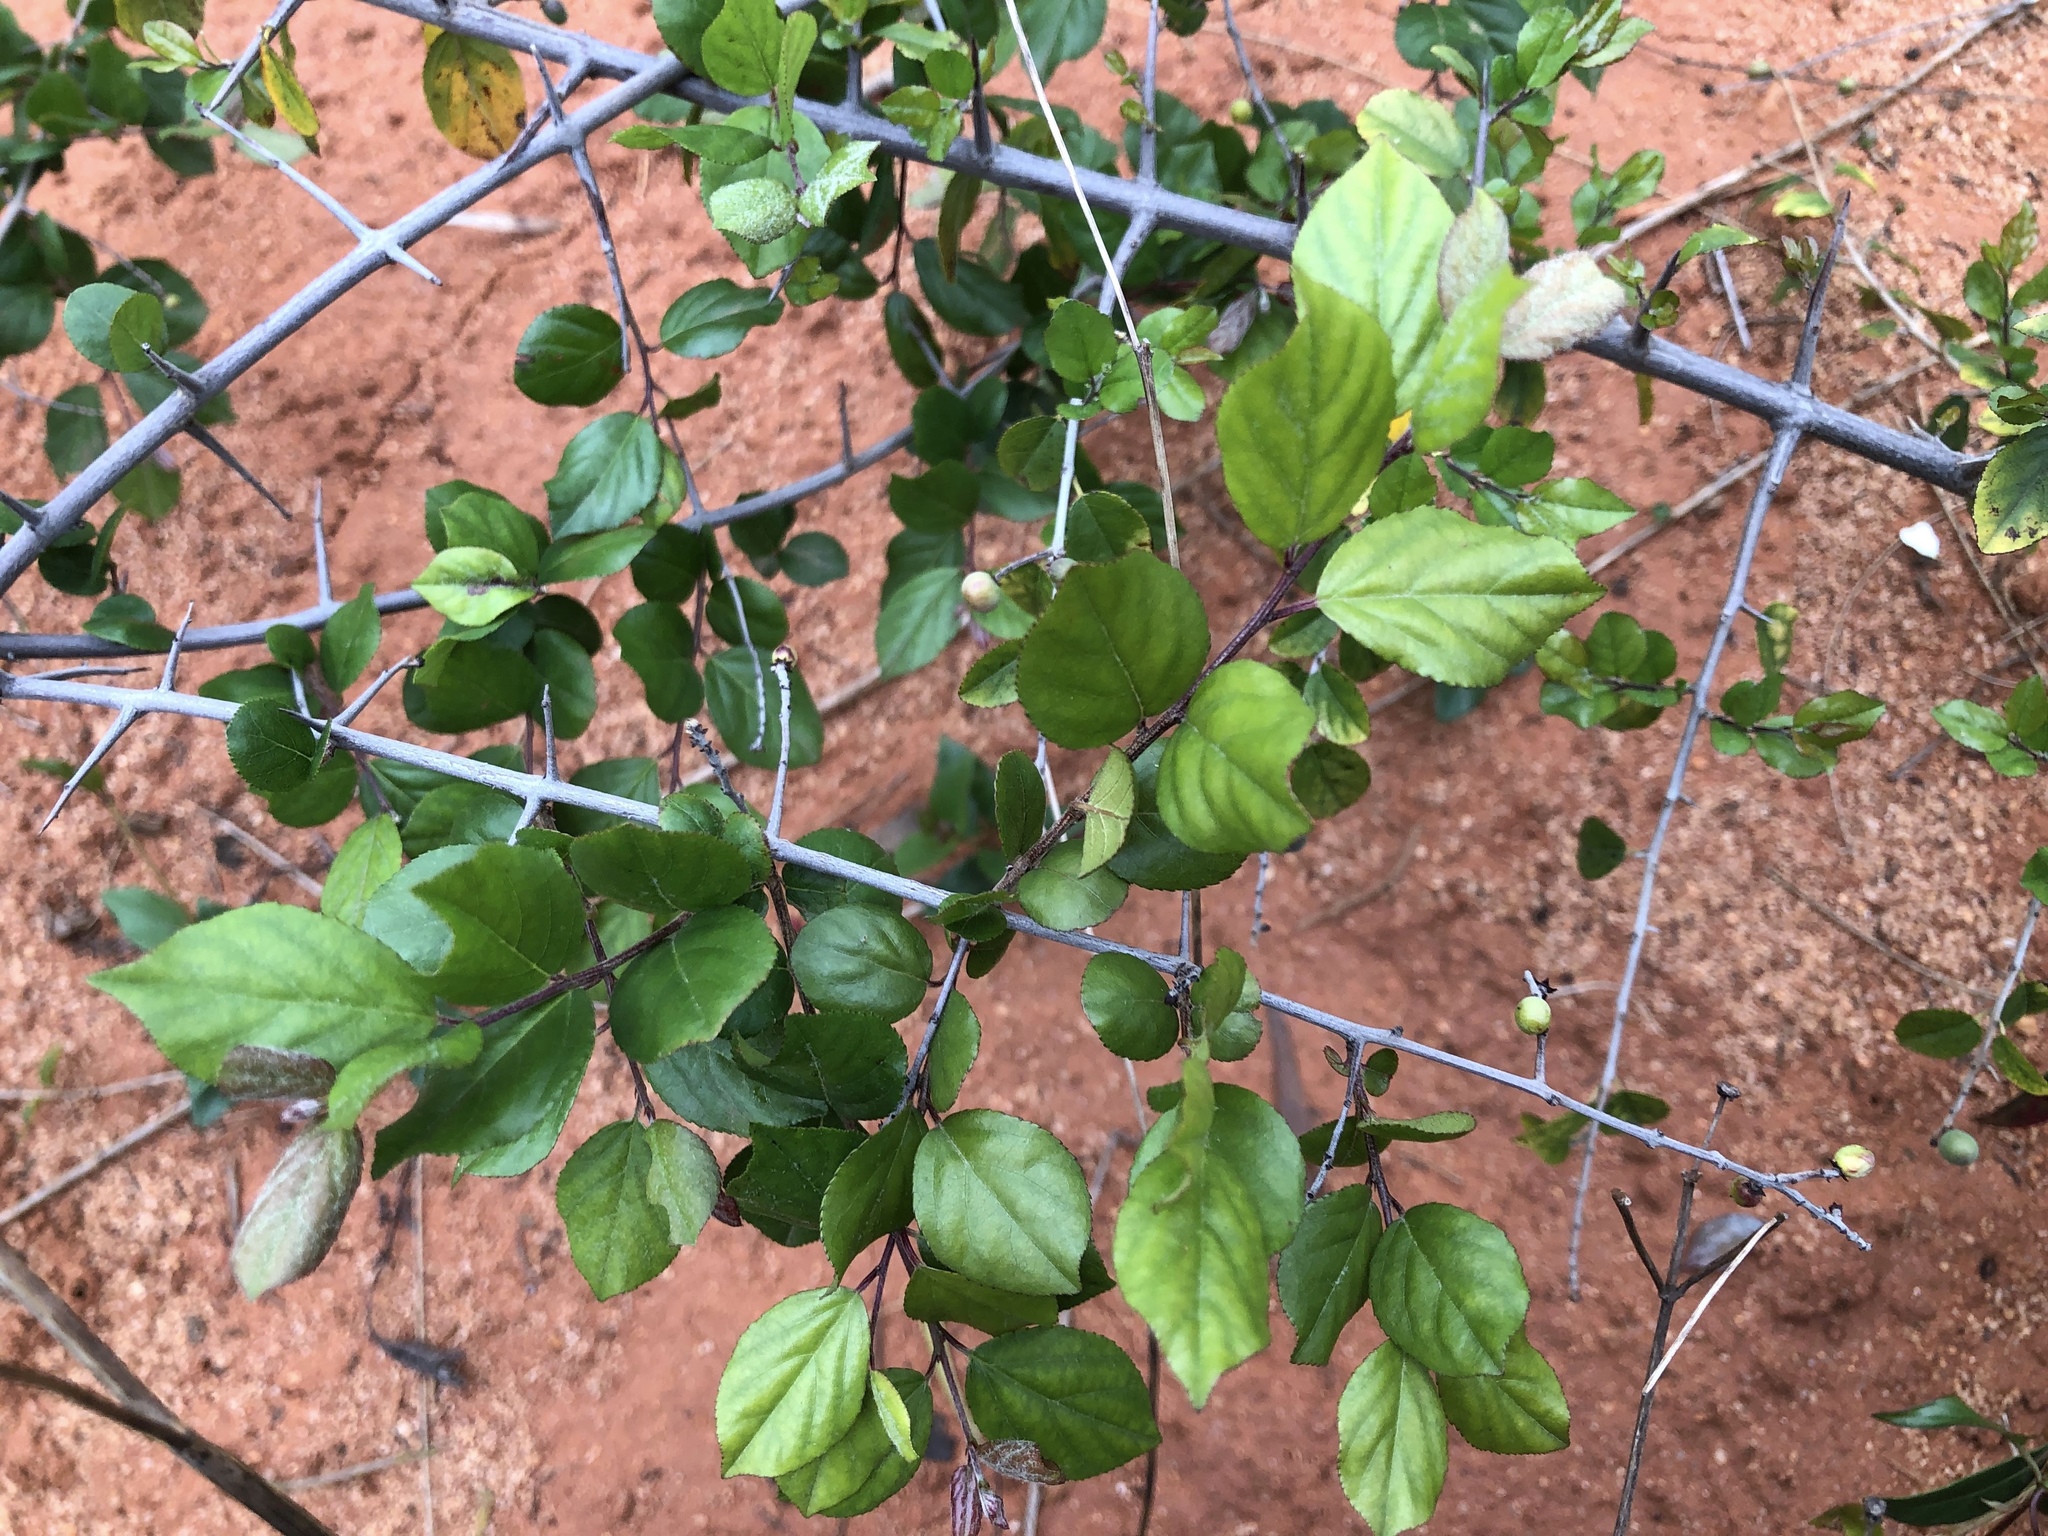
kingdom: Plantae
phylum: Tracheophyta
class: Magnoliopsida
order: Rosales
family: Rhamnaceae
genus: Sageretia
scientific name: Sageretia thea
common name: Pauper's-tea
